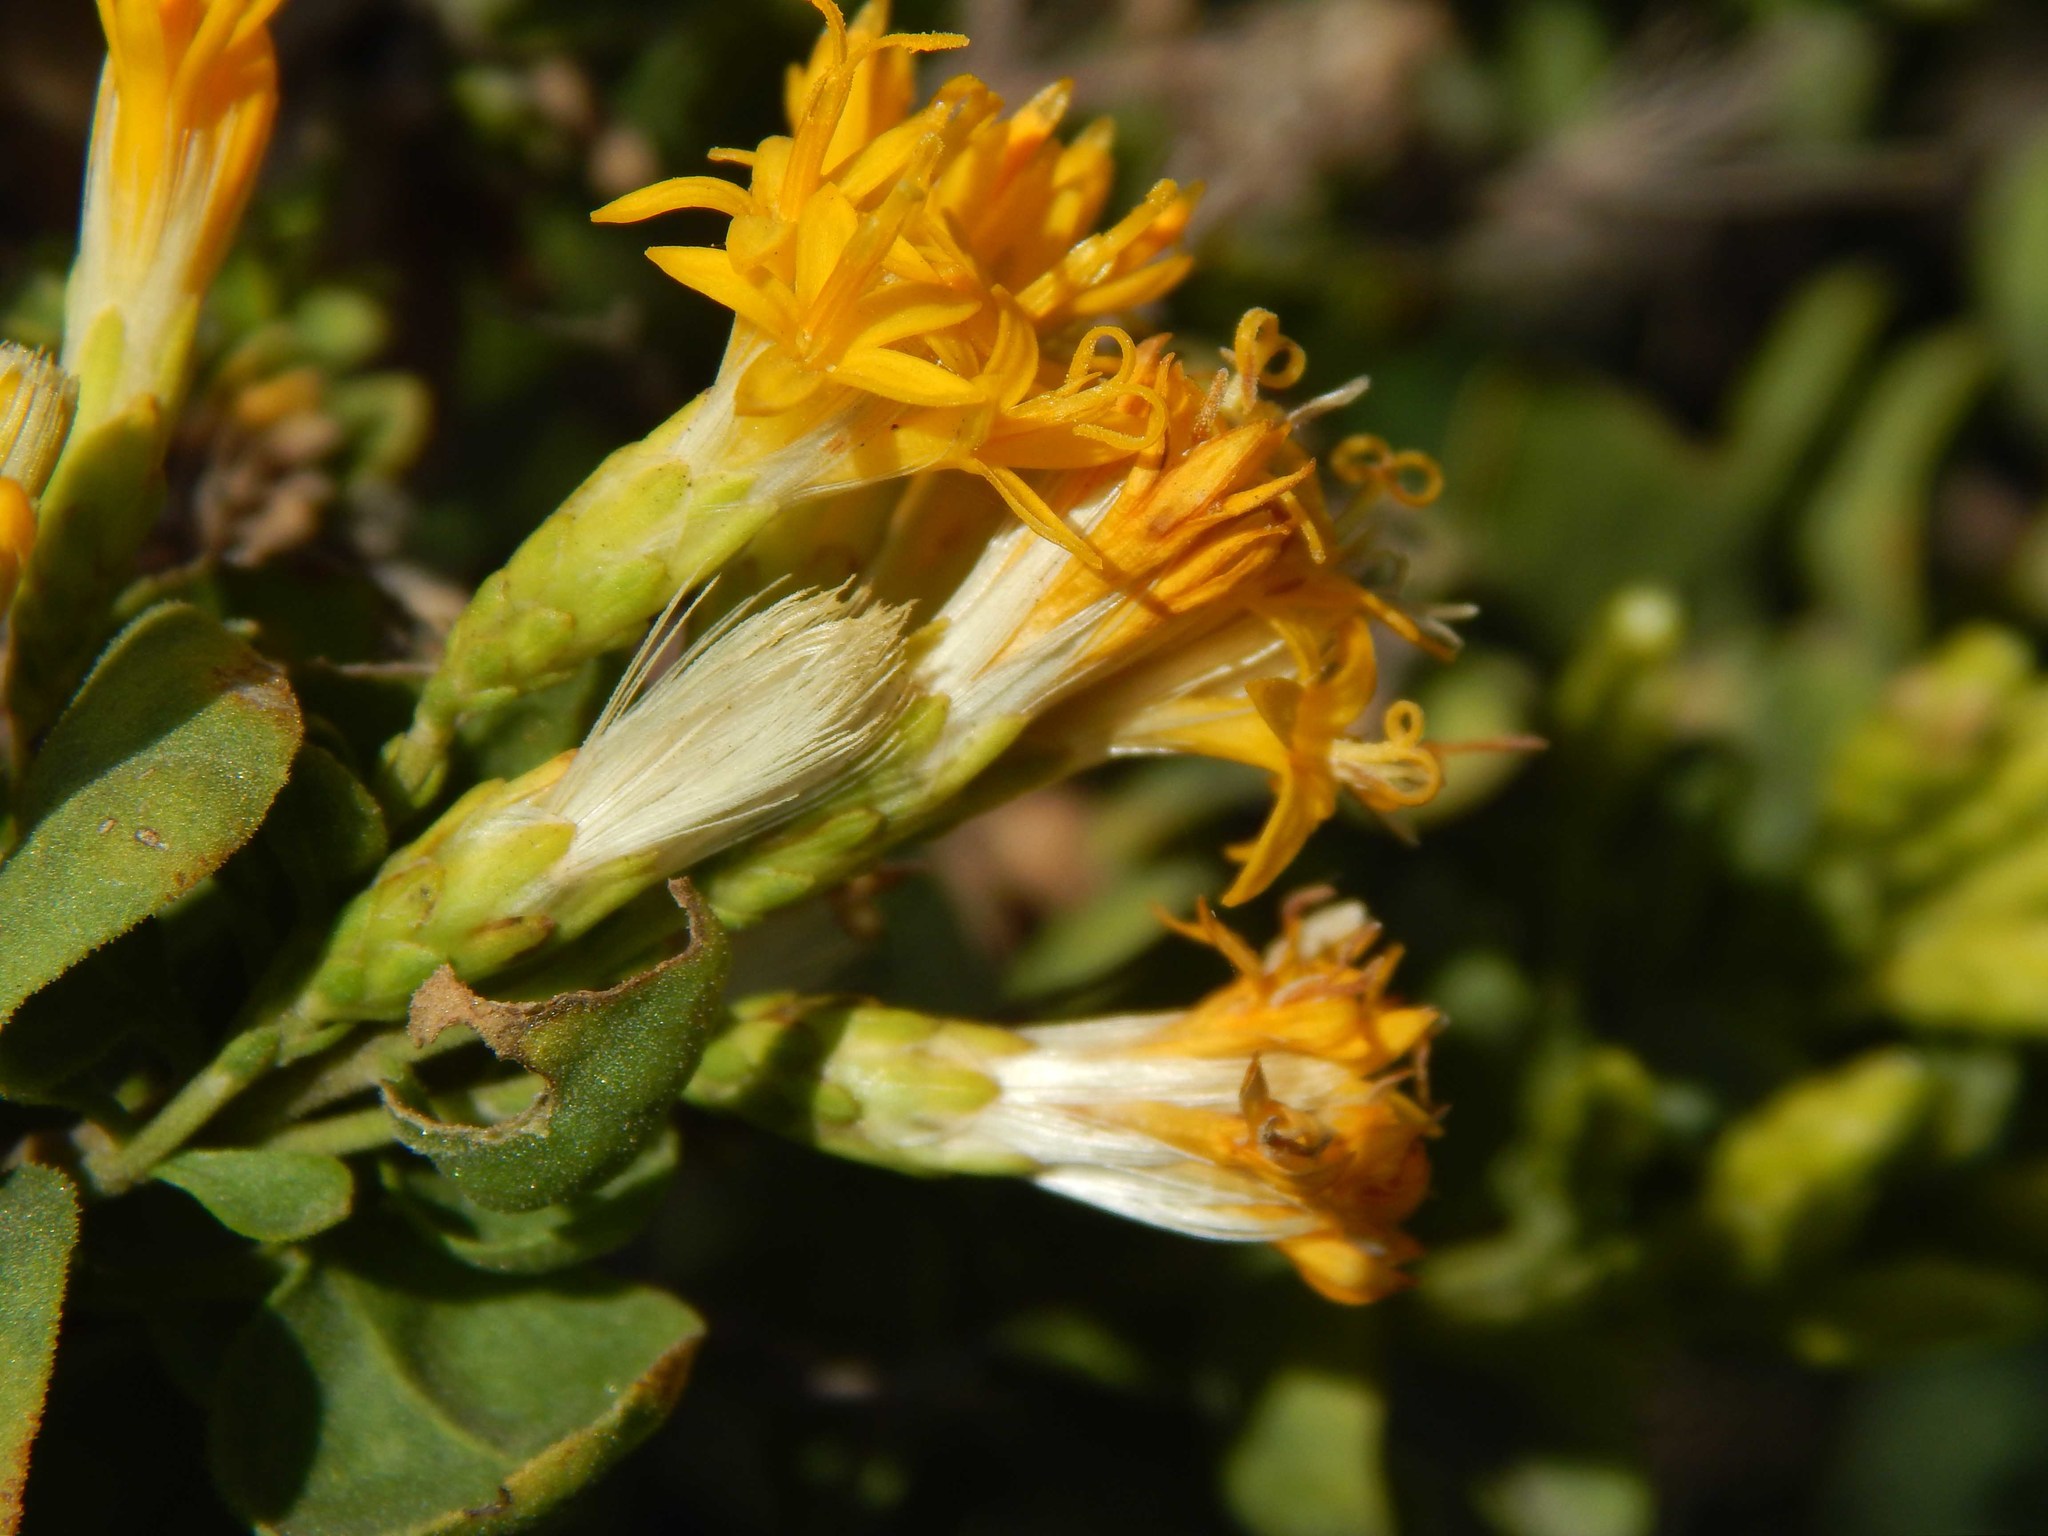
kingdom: Plantae
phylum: Tracheophyta
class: Magnoliopsida
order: Asterales
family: Asteraceae
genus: Pteronia
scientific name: Pteronia divaricata
